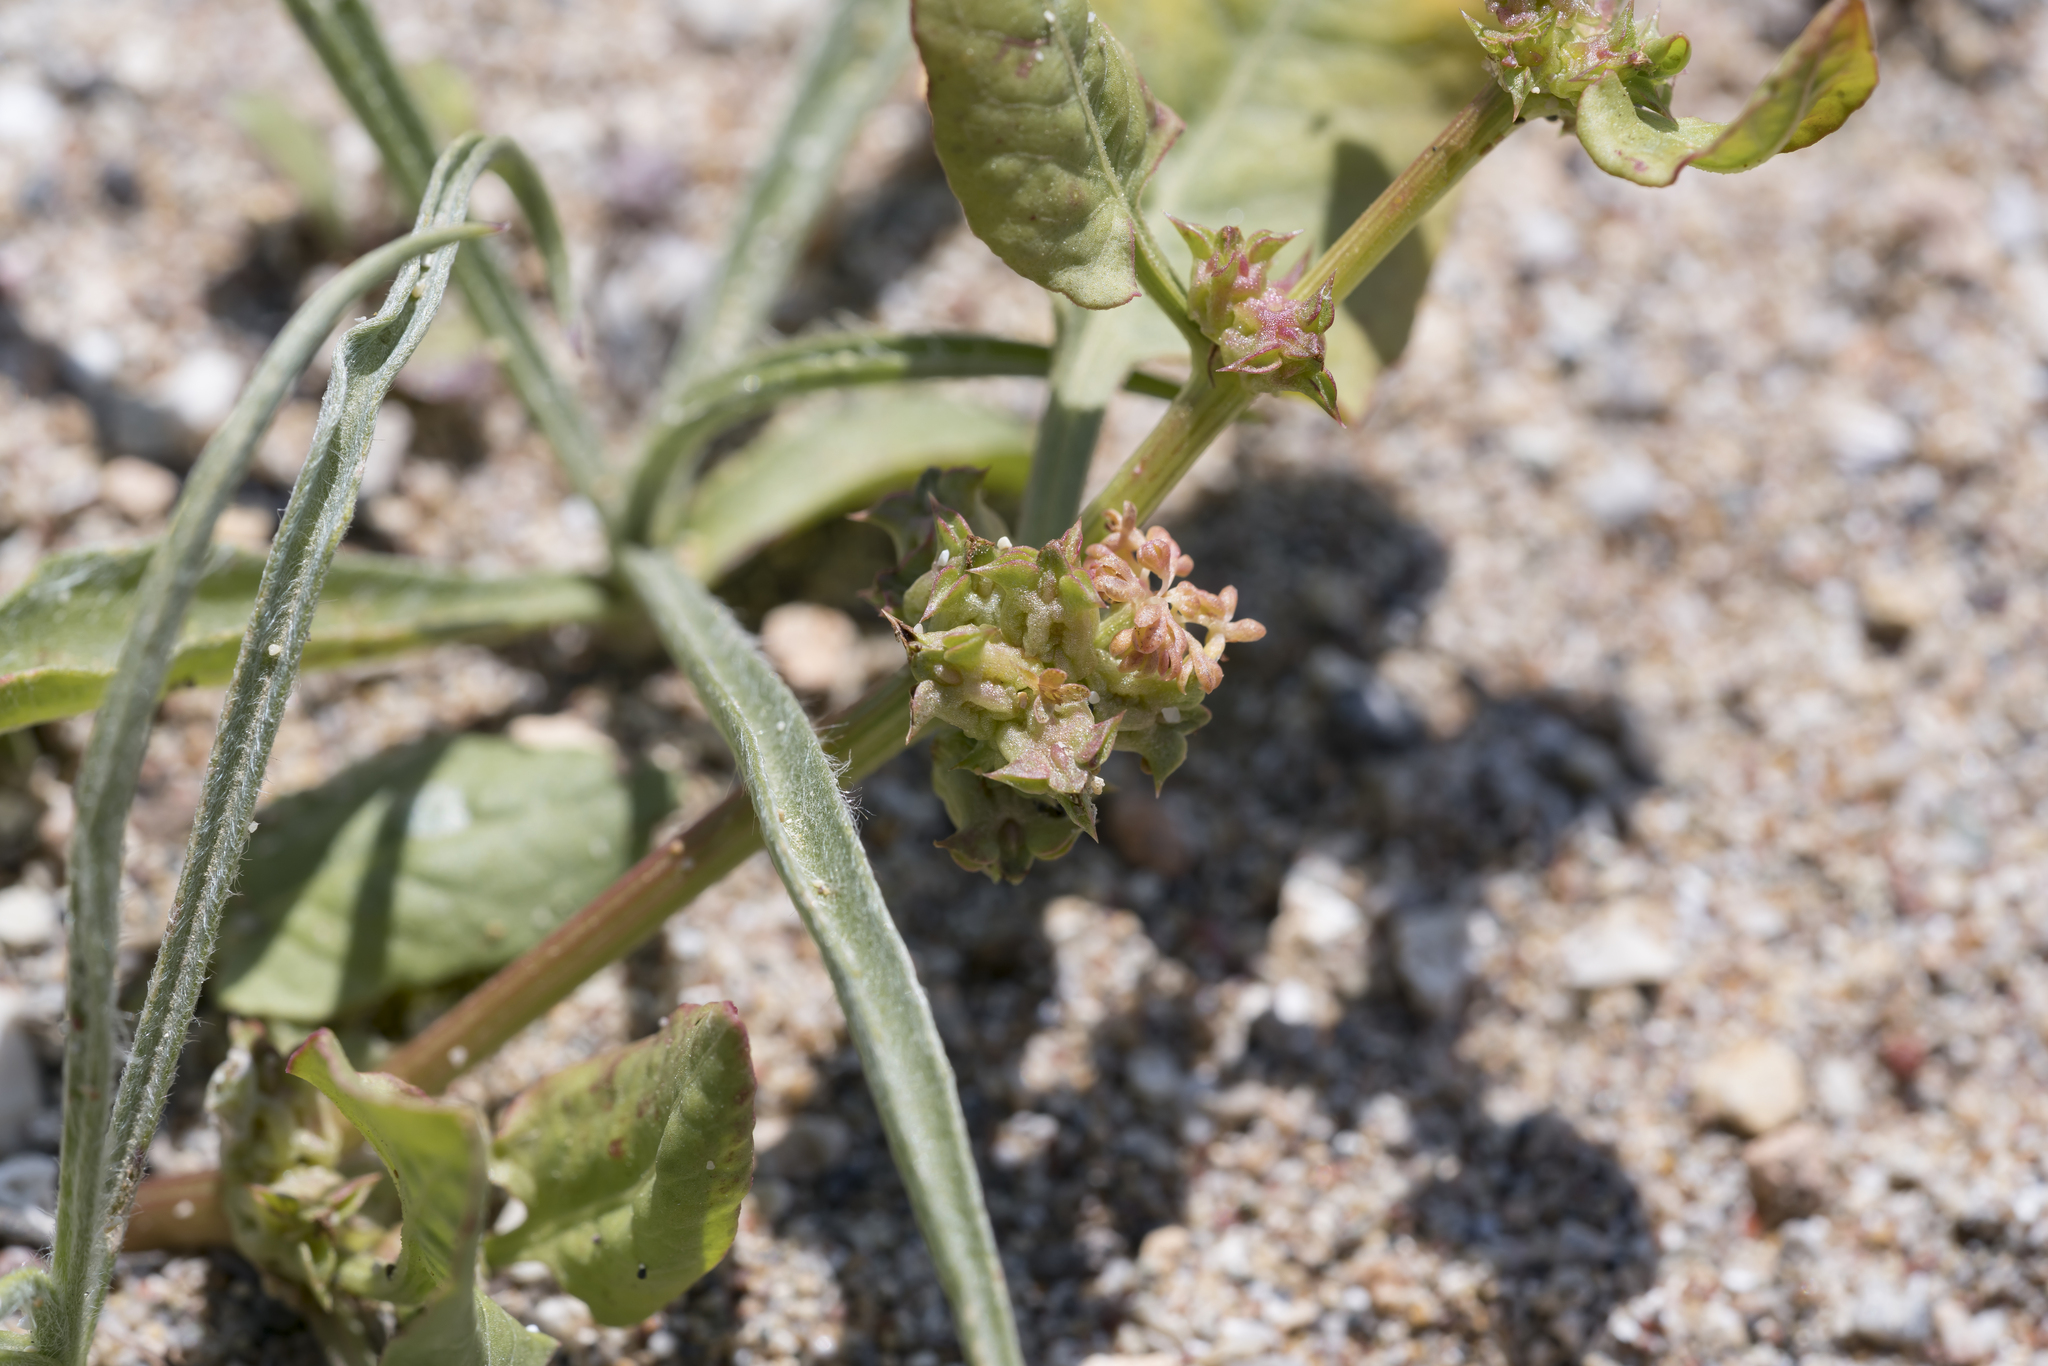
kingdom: Plantae
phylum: Tracheophyta
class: Magnoliopsida
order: Caryophyllales
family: Polygonaceae
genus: Rumex
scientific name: Rumex spinosus
